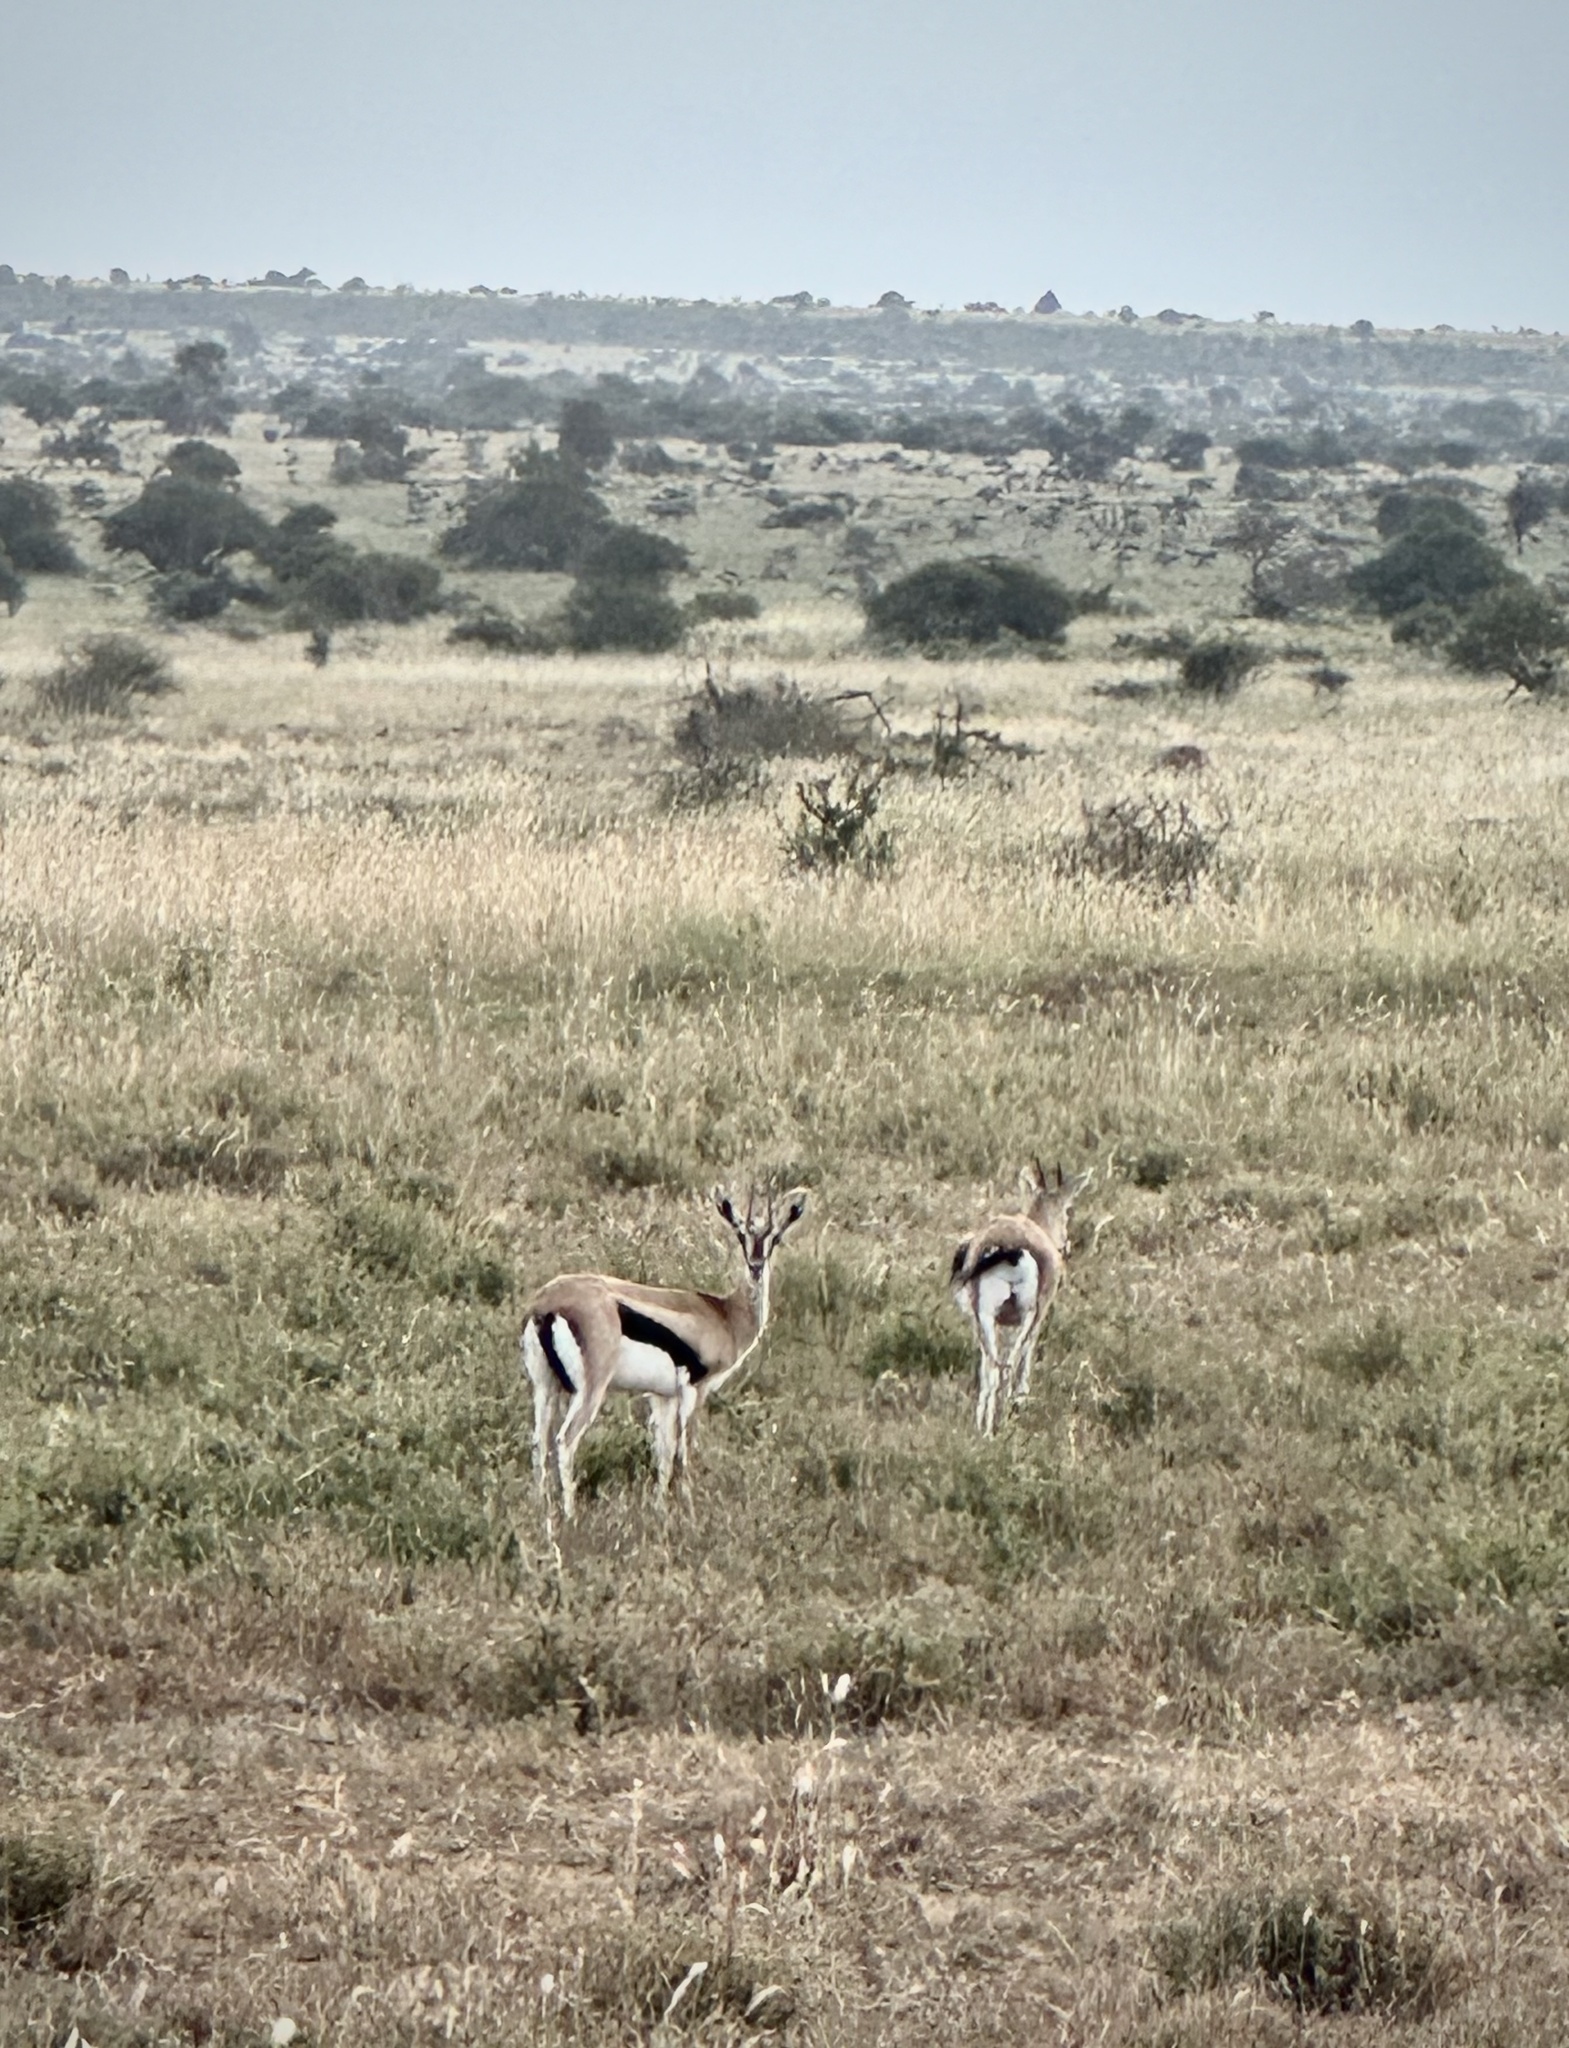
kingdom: Animalia
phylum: Chordata
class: Mammalia
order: Artiodactyla
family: Bovidae
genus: Eudorcas
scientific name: Eudorcas thomsonii
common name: Thomson's gazelle
